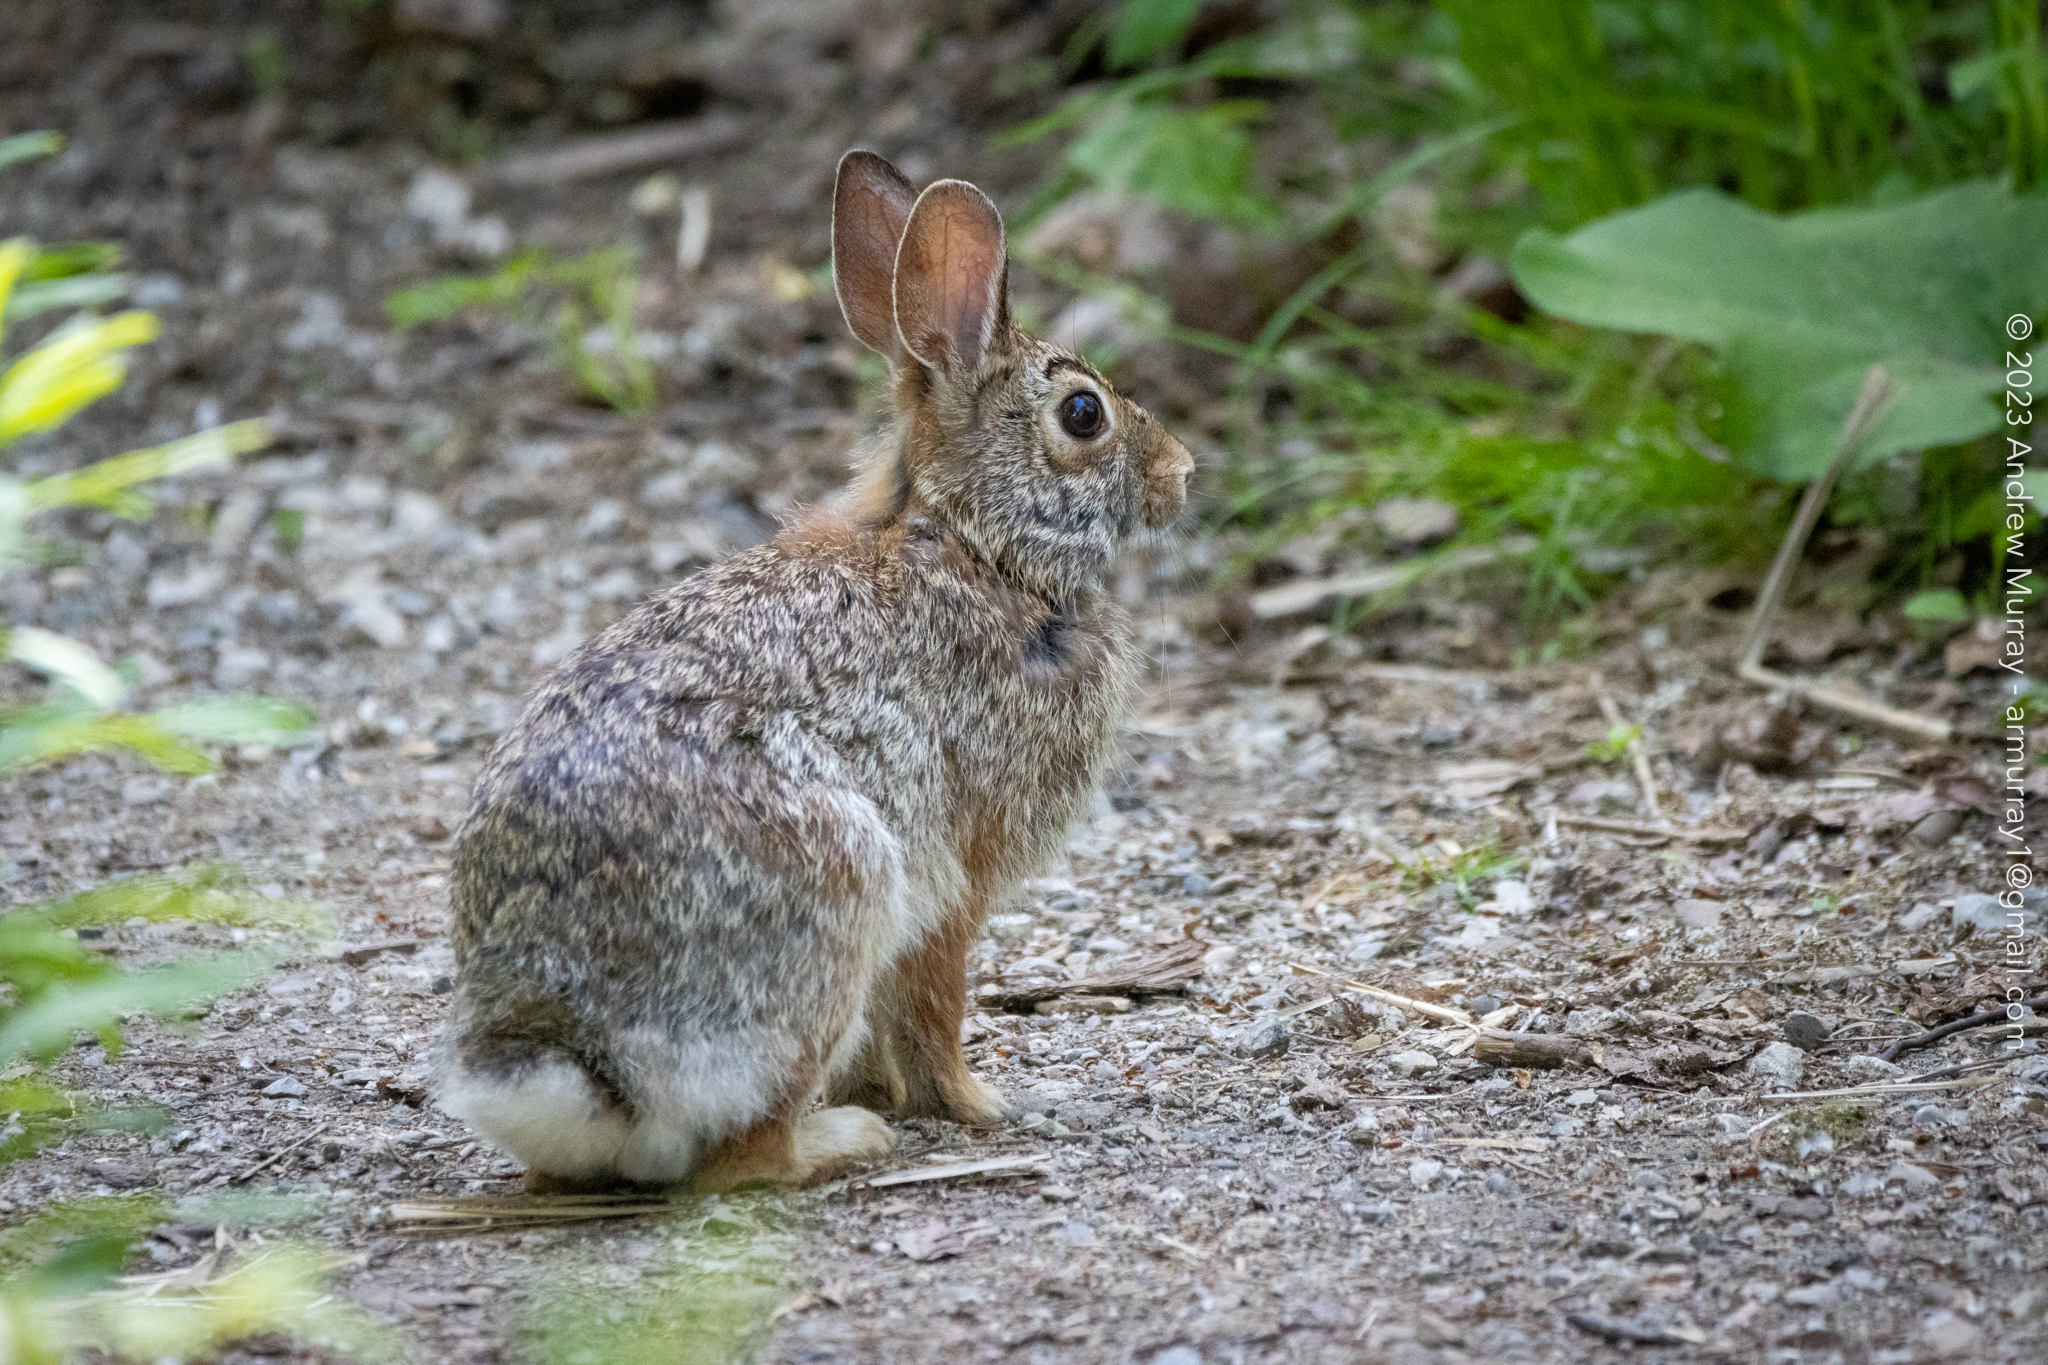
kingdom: Animalia
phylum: Chordata
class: Mammalia
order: Lagomorpha
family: Leporidae
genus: Sylvilagus
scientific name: Sylvilagus floridanus
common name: Eastern cottontail
